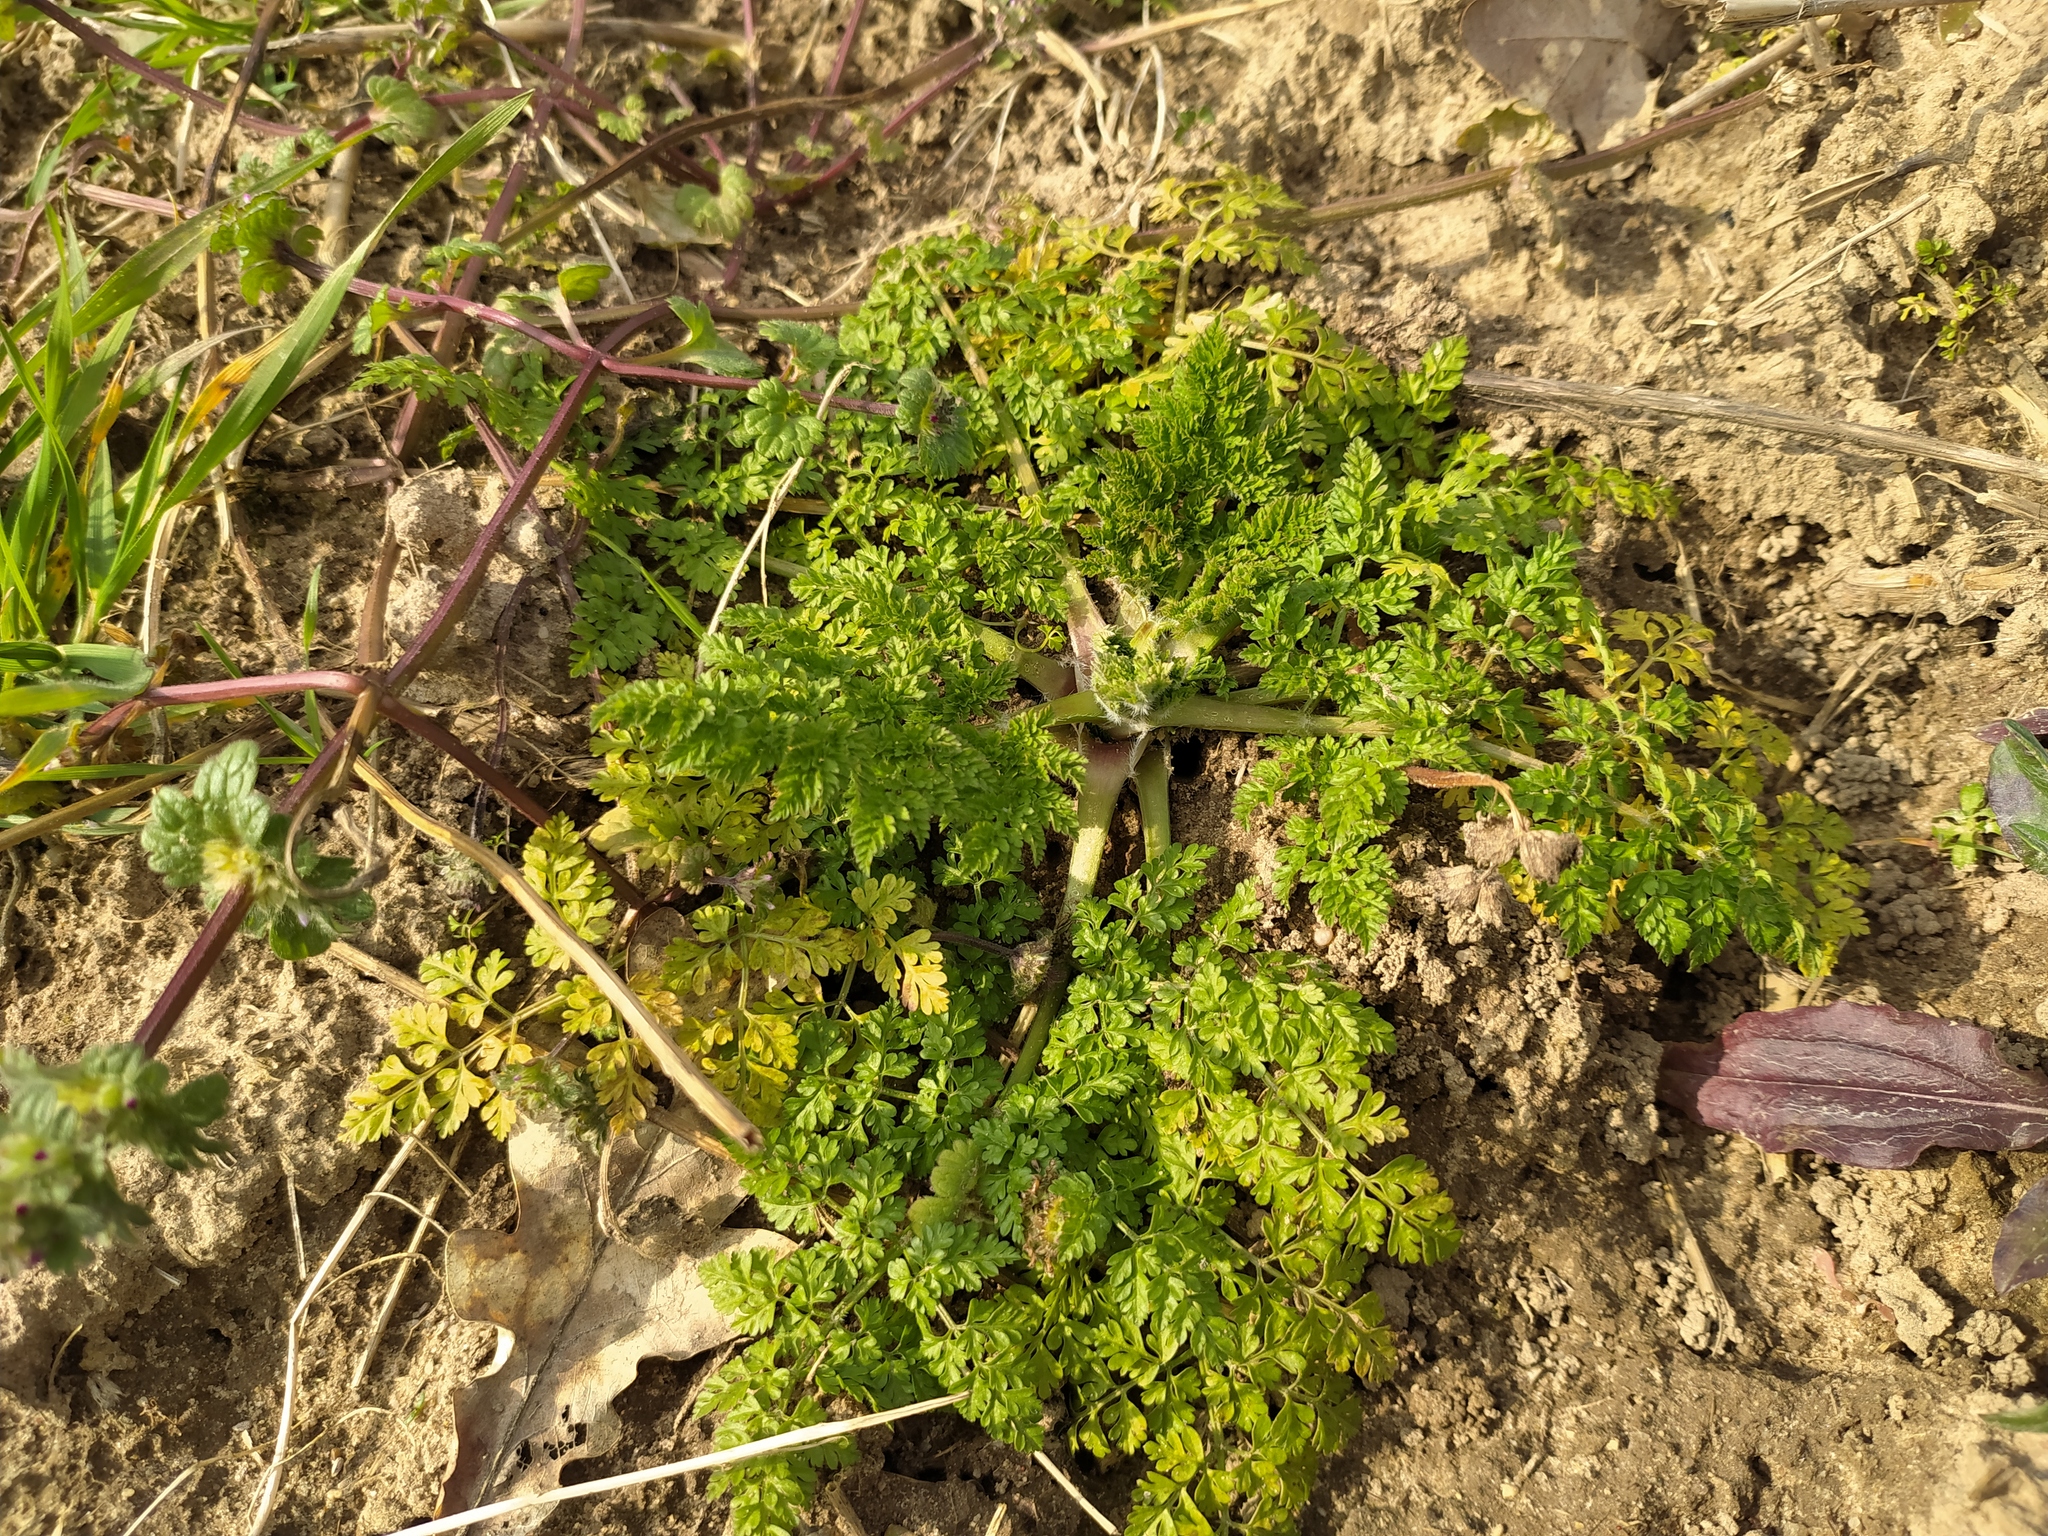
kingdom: Plantae
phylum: Tracheophyta
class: Magnoliopsida
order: Apiales
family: Apiaceae
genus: Anthriscus
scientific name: Anthriscus caucalis
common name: Bur chervil
